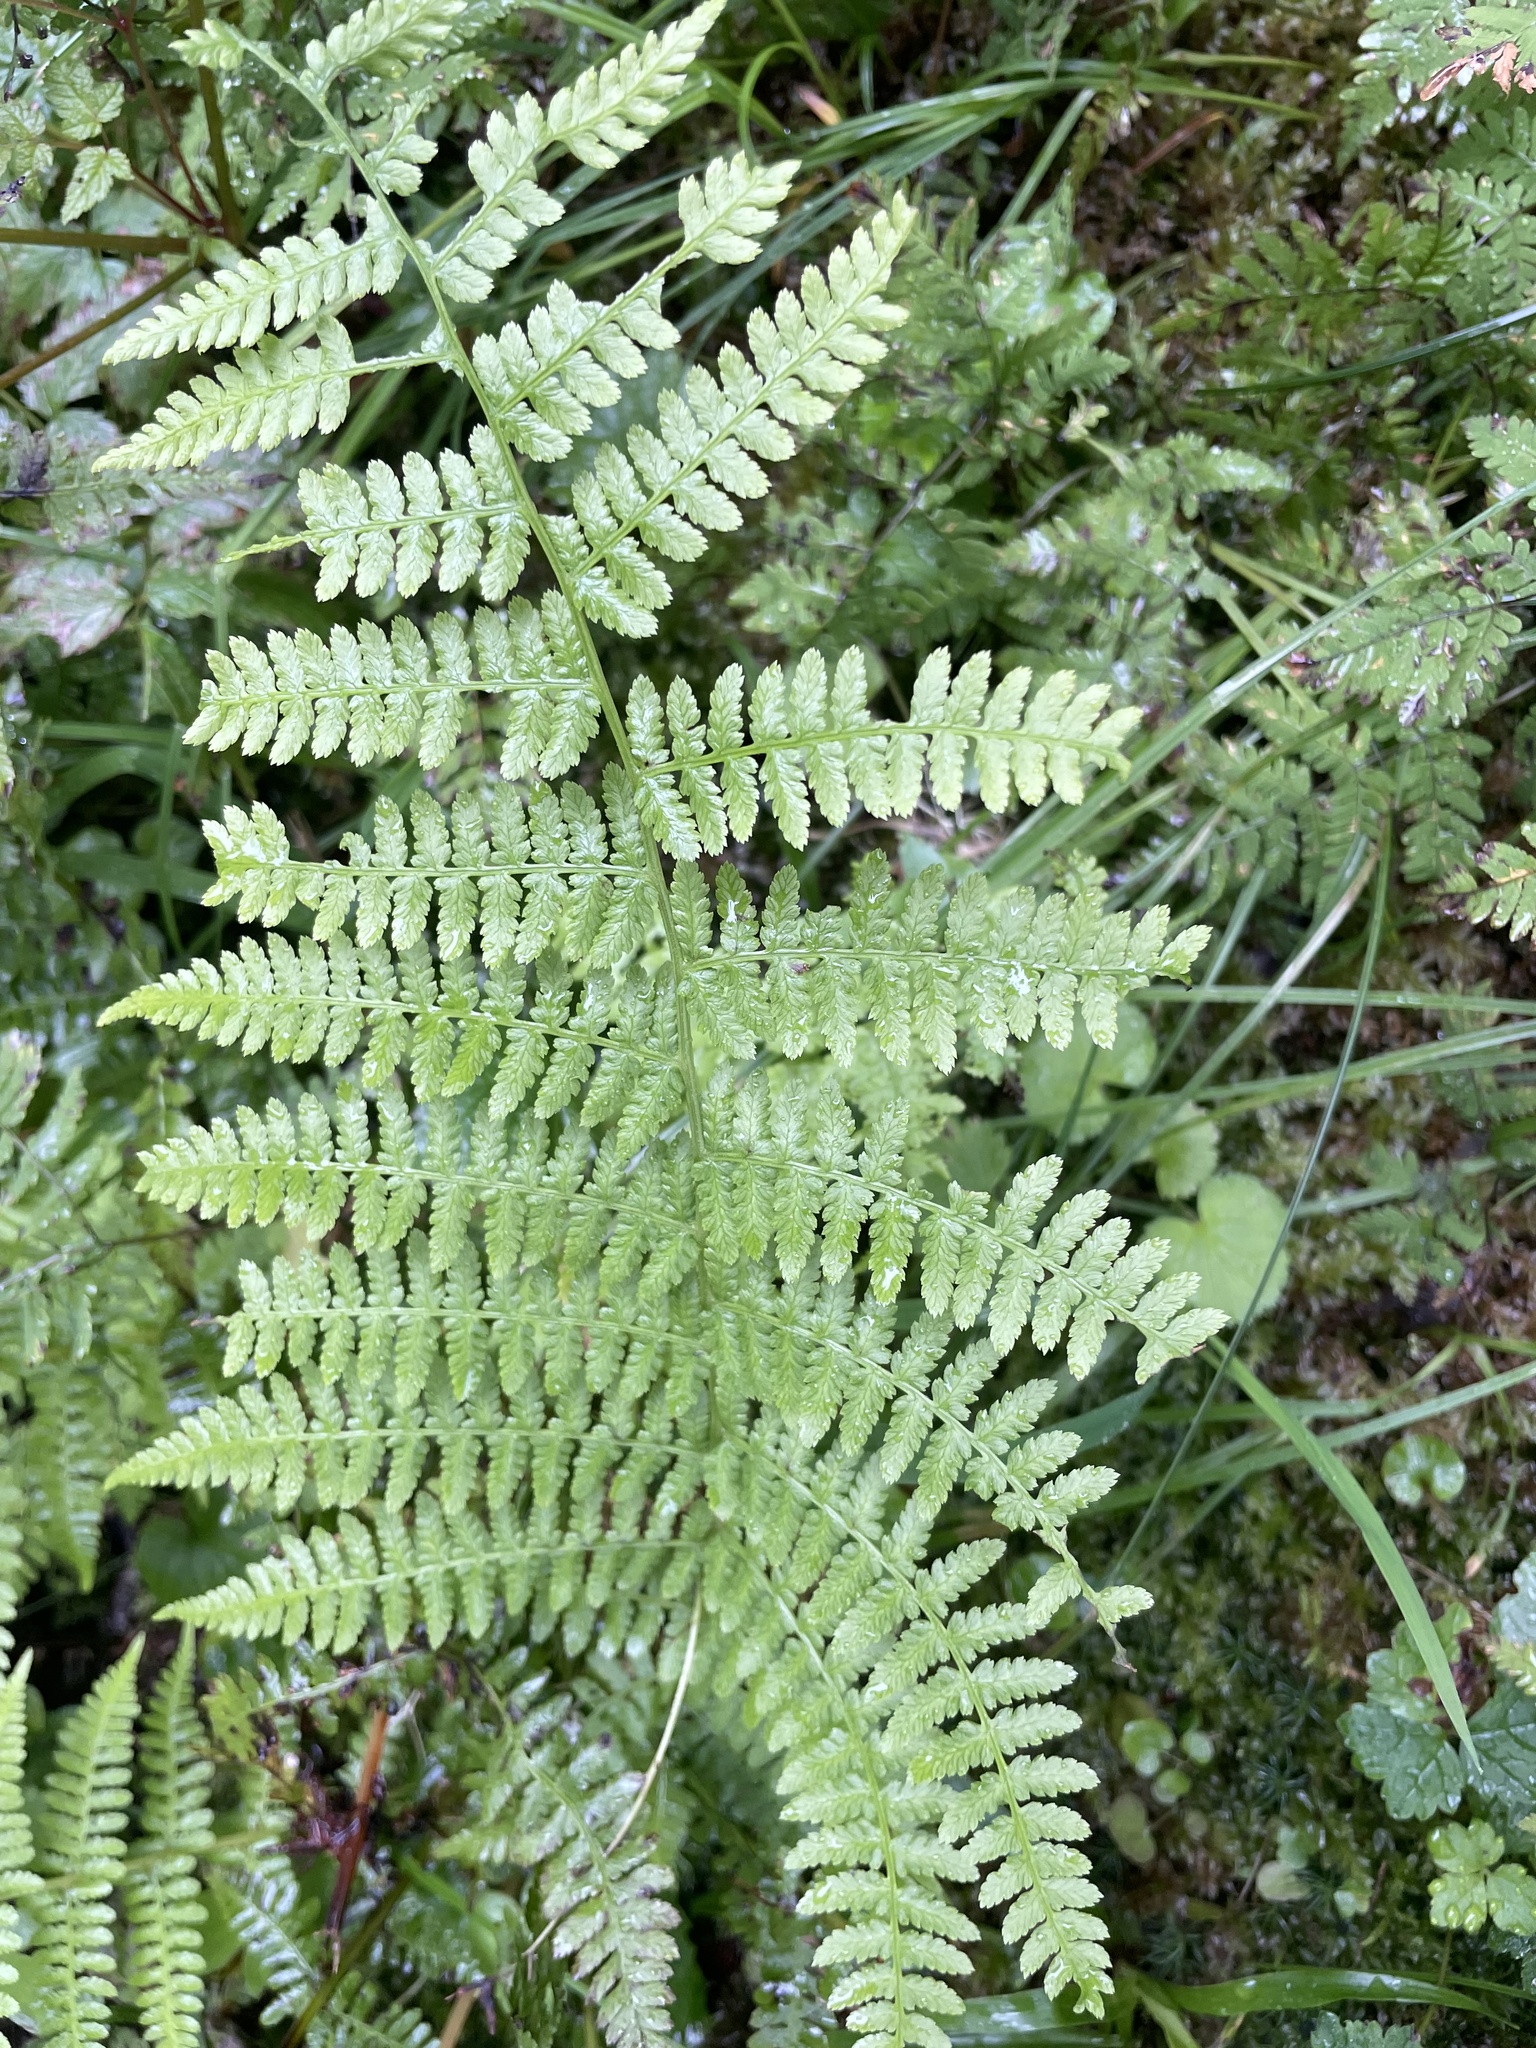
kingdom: Plantae
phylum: Tracheophyta
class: Polypodiopsida
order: Polypodiales
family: Athyriaceae
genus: Athyrium
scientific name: Athyrium filix-femina
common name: Lady fern
